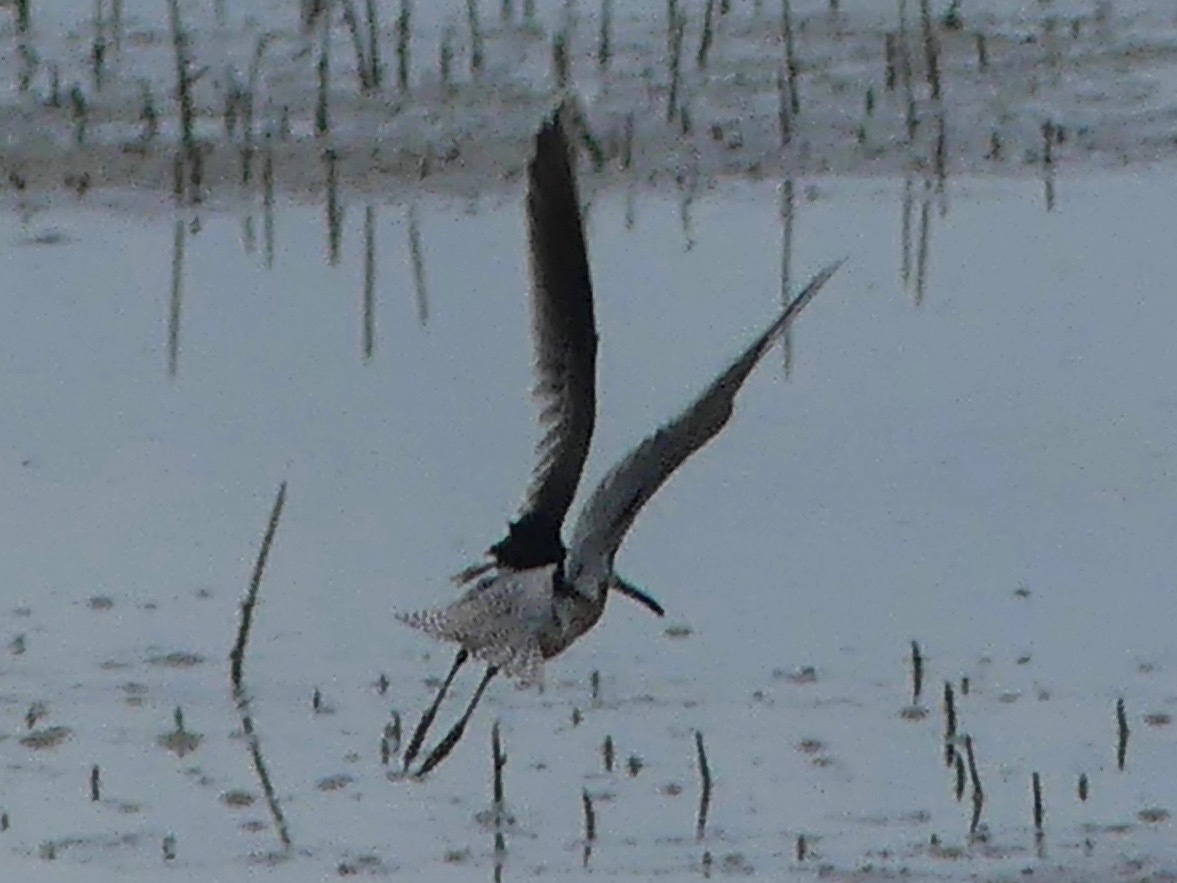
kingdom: Animalia
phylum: Chordata
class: Aves
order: Charadriiformes
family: Scolopacidae
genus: Limnodromus
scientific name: Limnodromus
